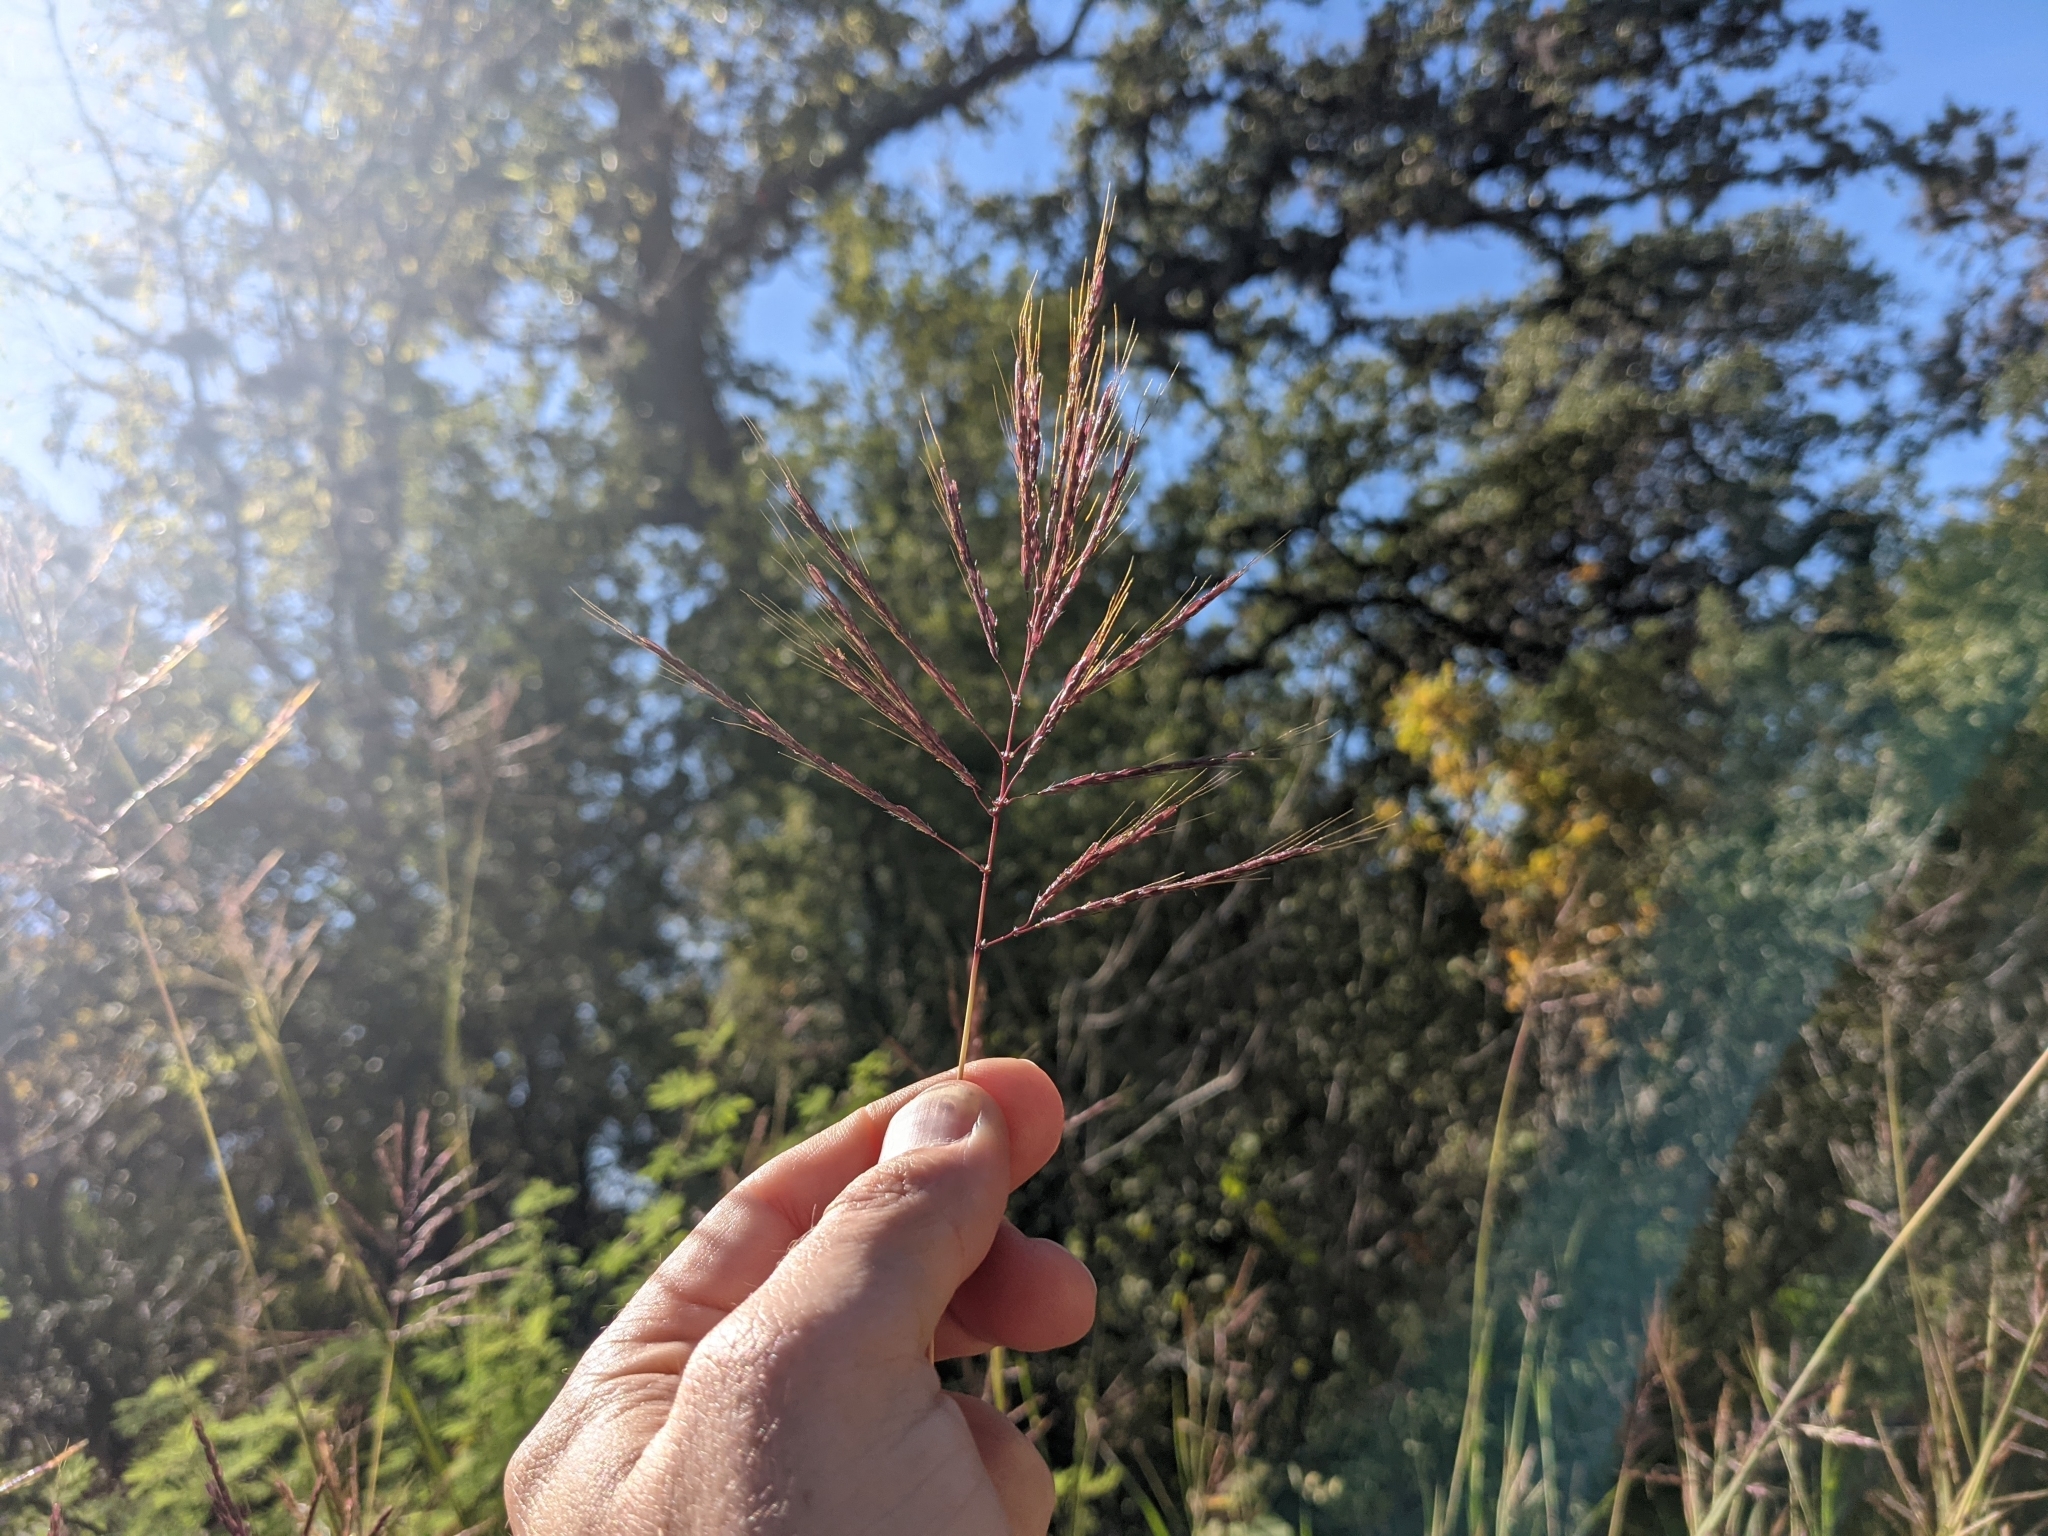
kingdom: Plantae
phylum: Tracheophyta
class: Liliopsida
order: Poales
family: Poaceae
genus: Bothriochloa
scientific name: Bothriochloa bladhii
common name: Caucasian bluestem
